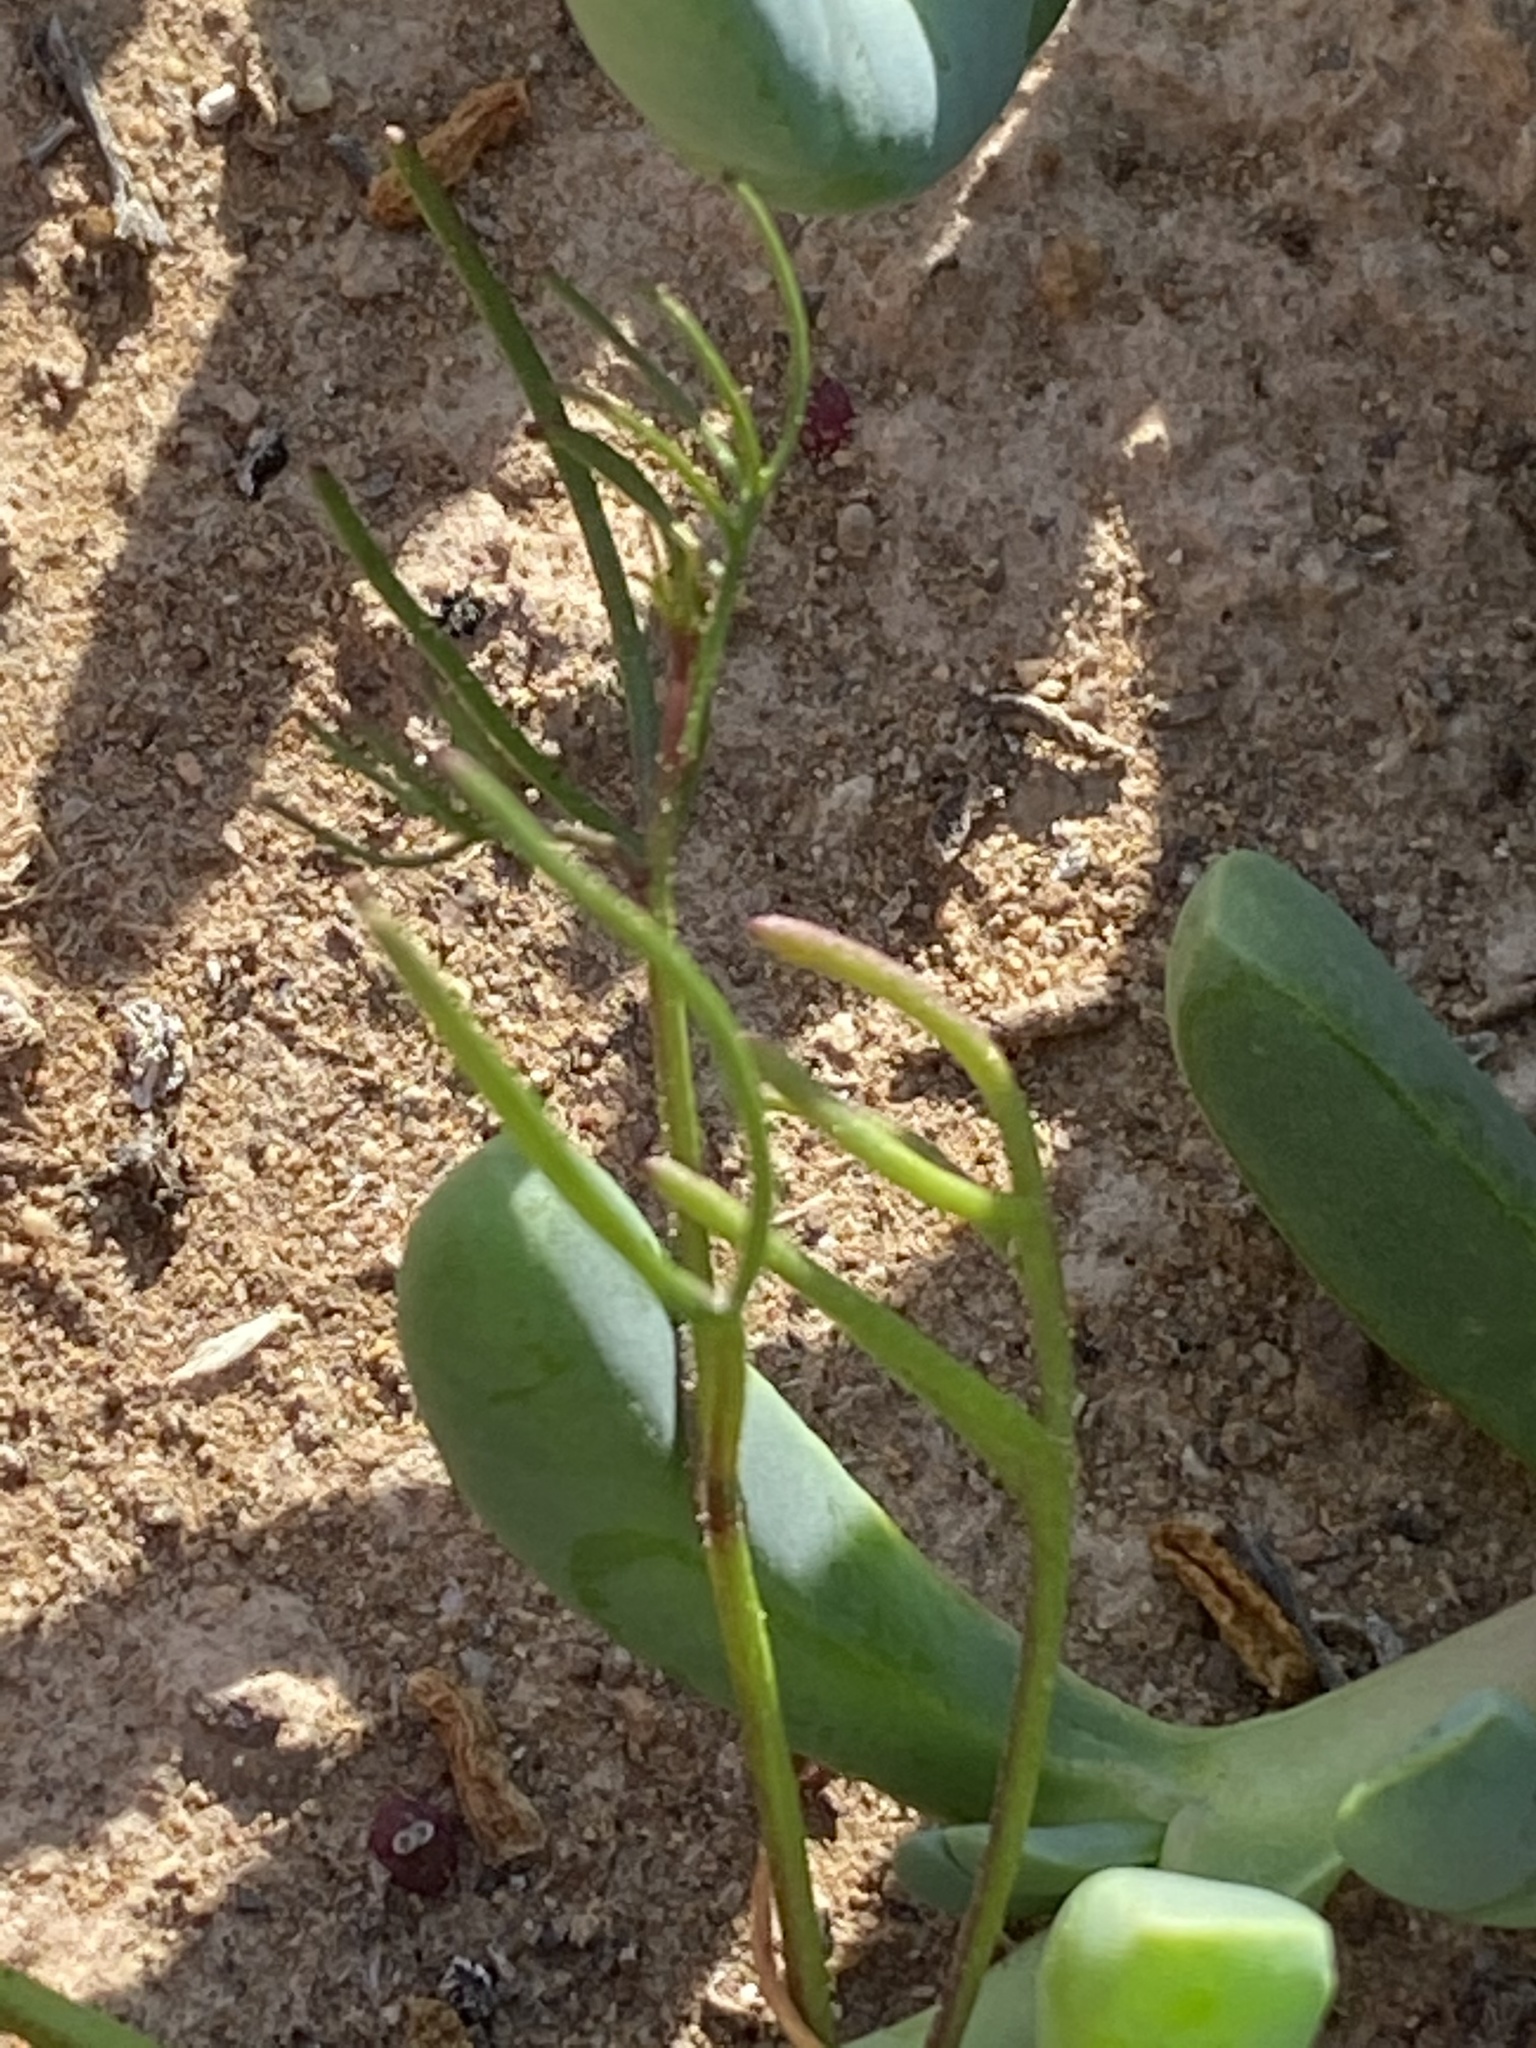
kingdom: Plantae
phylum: Tracheophyta
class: Magnoliopsida
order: Brassicales
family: Brassicaceae
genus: Heliophila
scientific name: Heliophila variabilis
